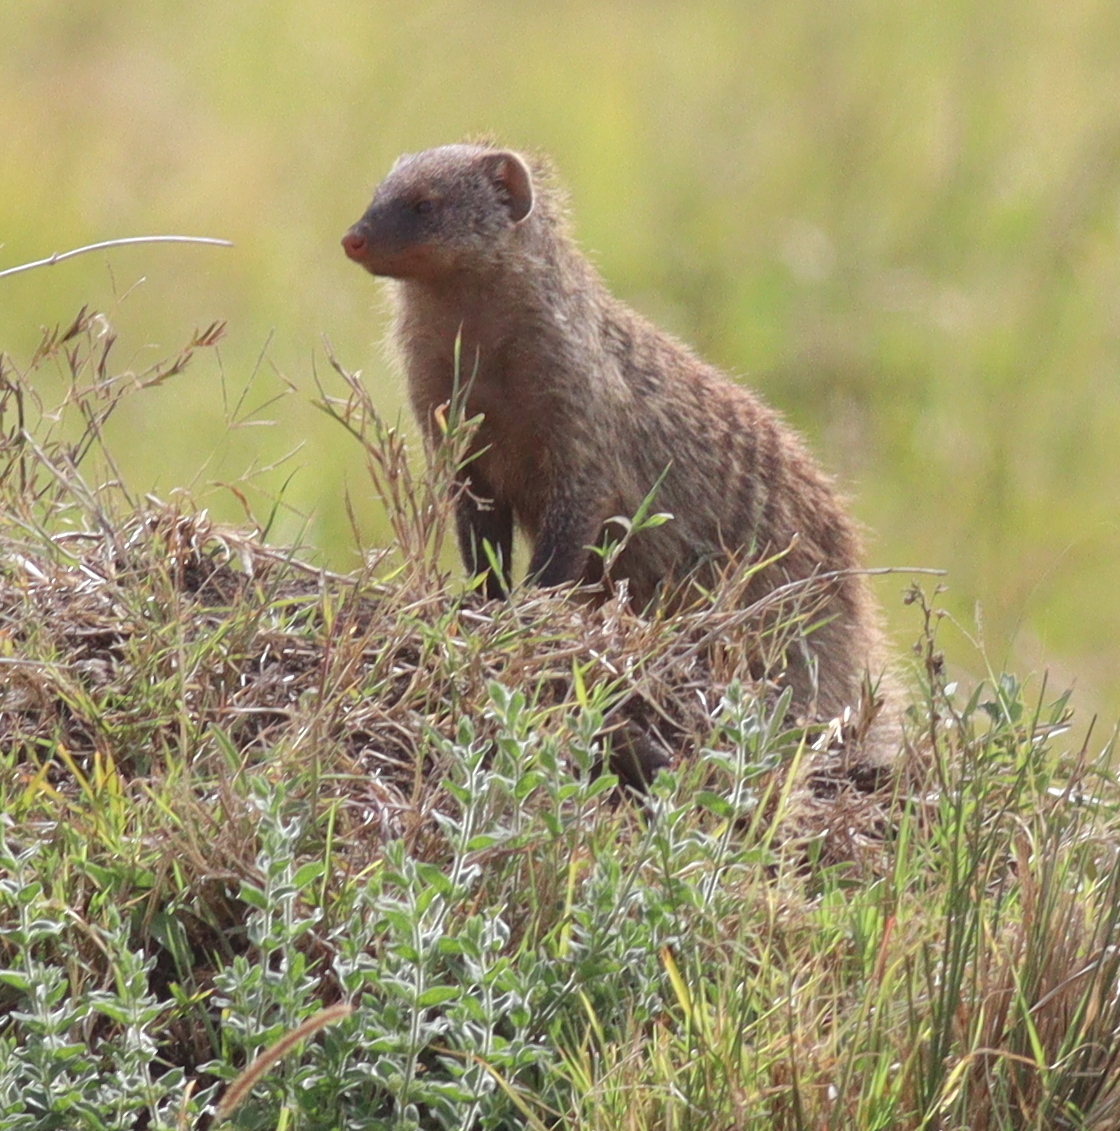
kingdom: Animalia
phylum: Chordata
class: Mammalia
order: Carnivora
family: Herpestidae
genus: Mungos
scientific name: Mungos mungo
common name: Banded mongoose
